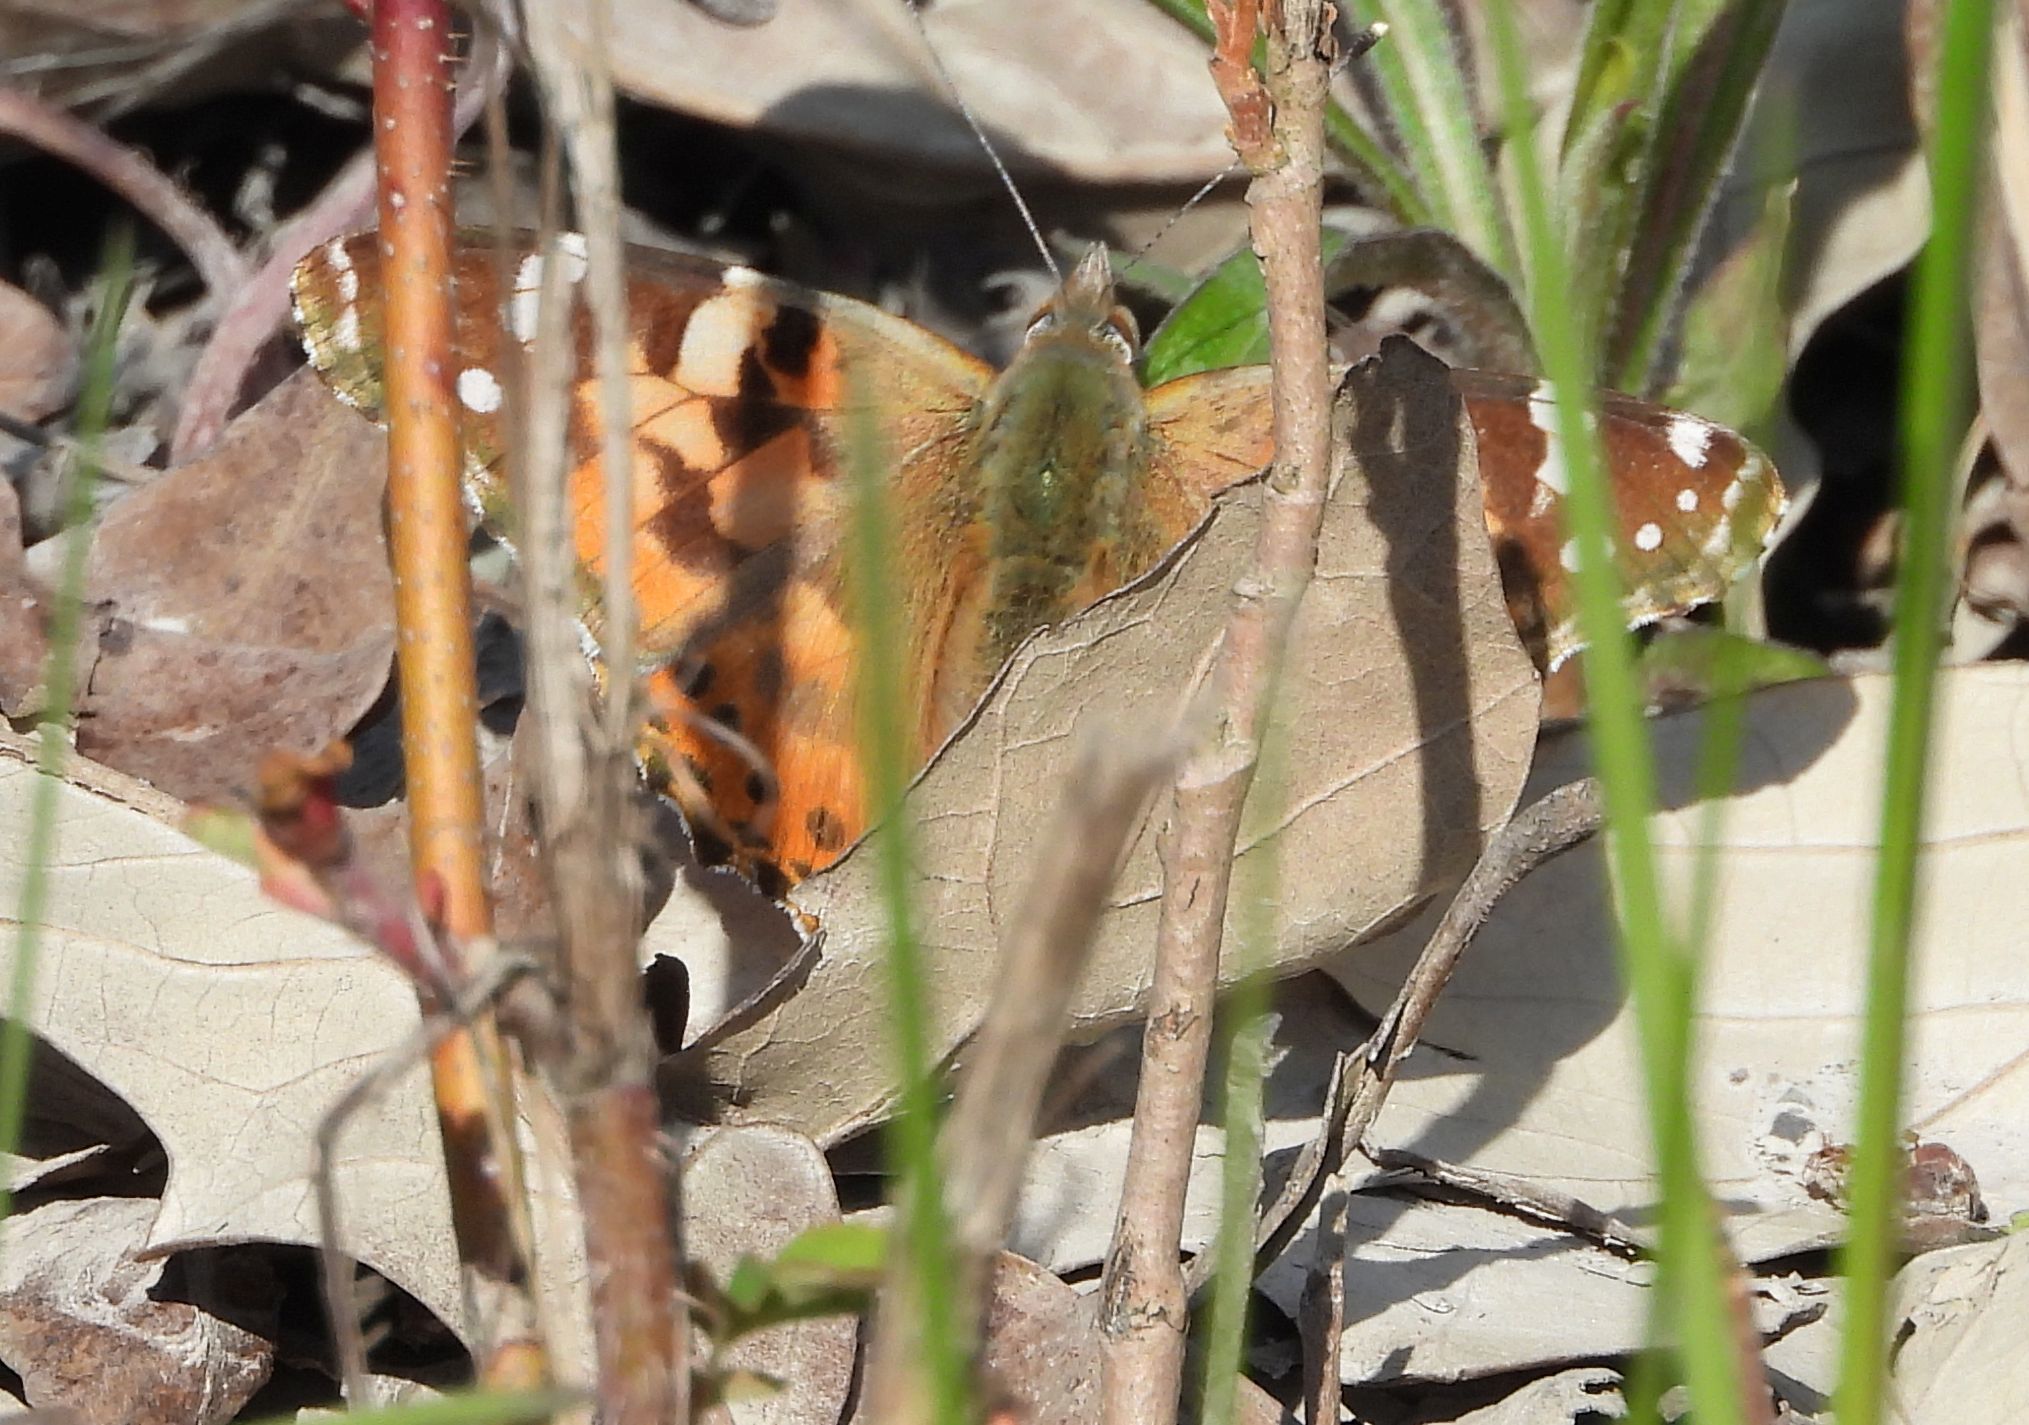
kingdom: Animalia
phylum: Arthropoda
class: Insecta
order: Lepidoptera
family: Nymphalidae
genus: Vanessa
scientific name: Vanessa cardui
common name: Painted lady
